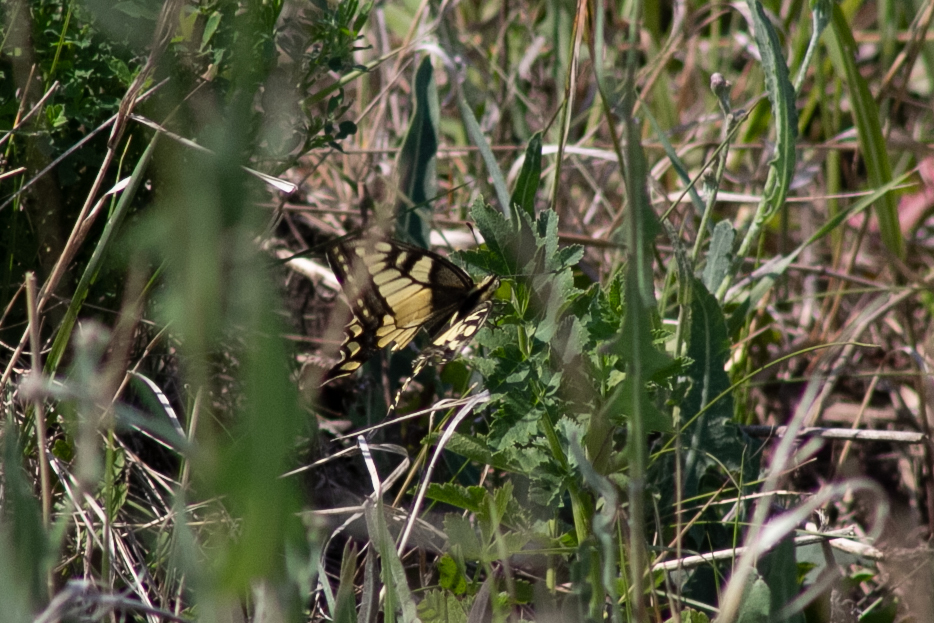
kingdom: Animalia
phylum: Arthropoda
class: Insecta
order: Lepidoptera
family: Papilionidae
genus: Papilio
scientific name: Papilio machaon
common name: Swallowtail
